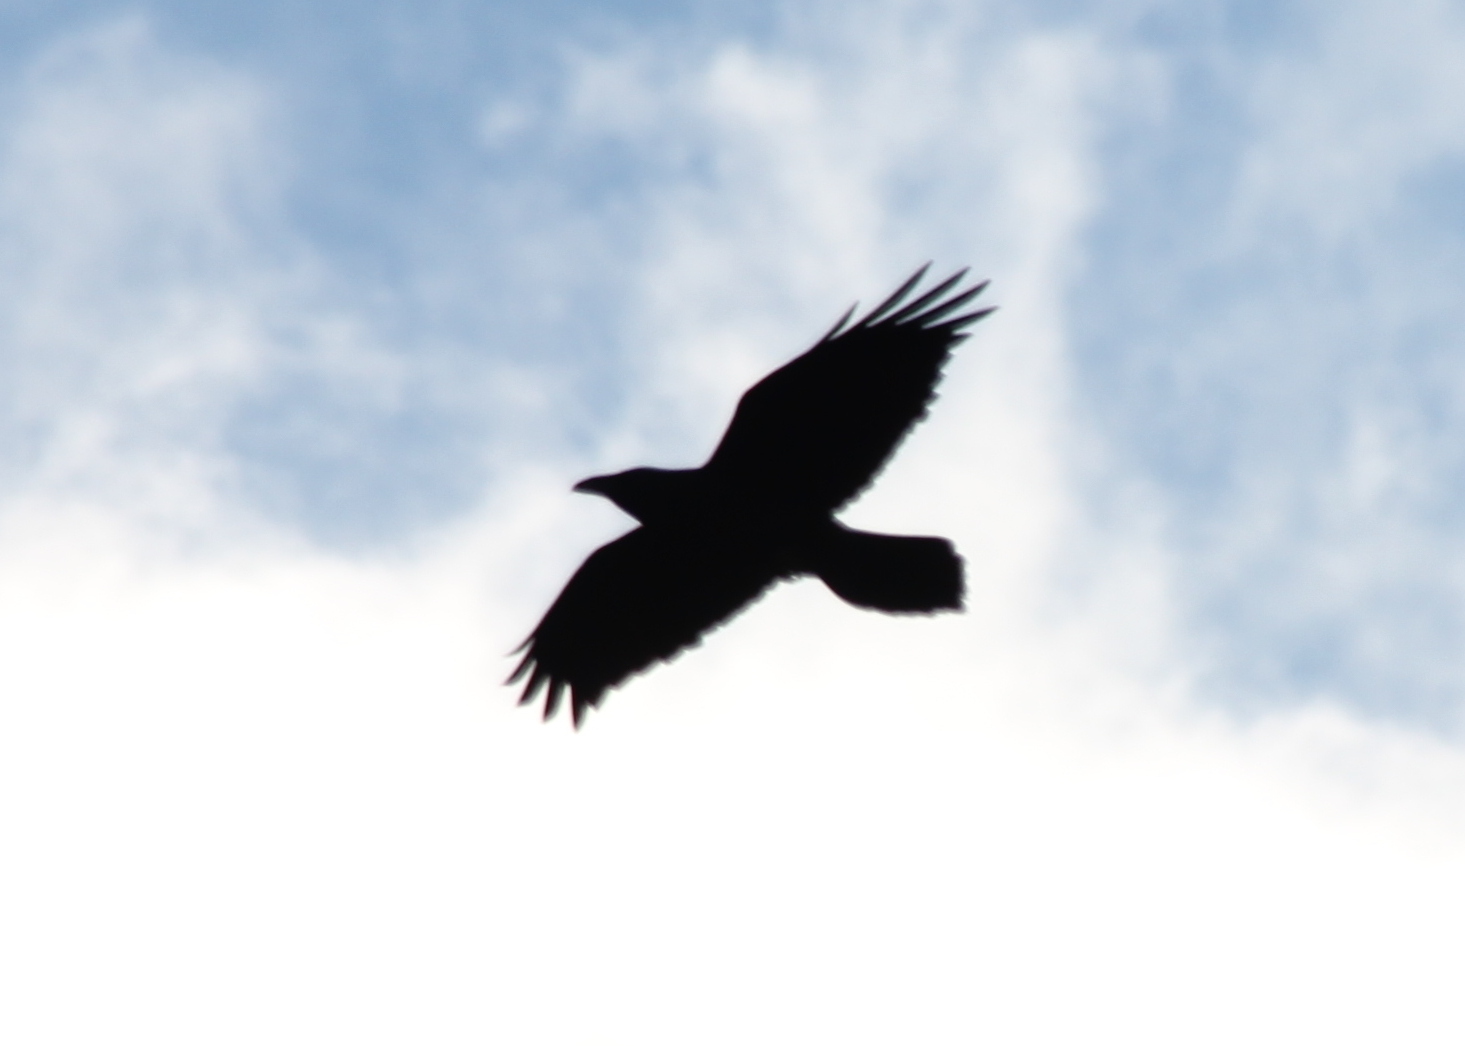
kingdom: Animalia
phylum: Chordata
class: Aves
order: Passeriformes
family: Corvidae
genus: Corvus
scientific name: Corvus corax
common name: Common raven
